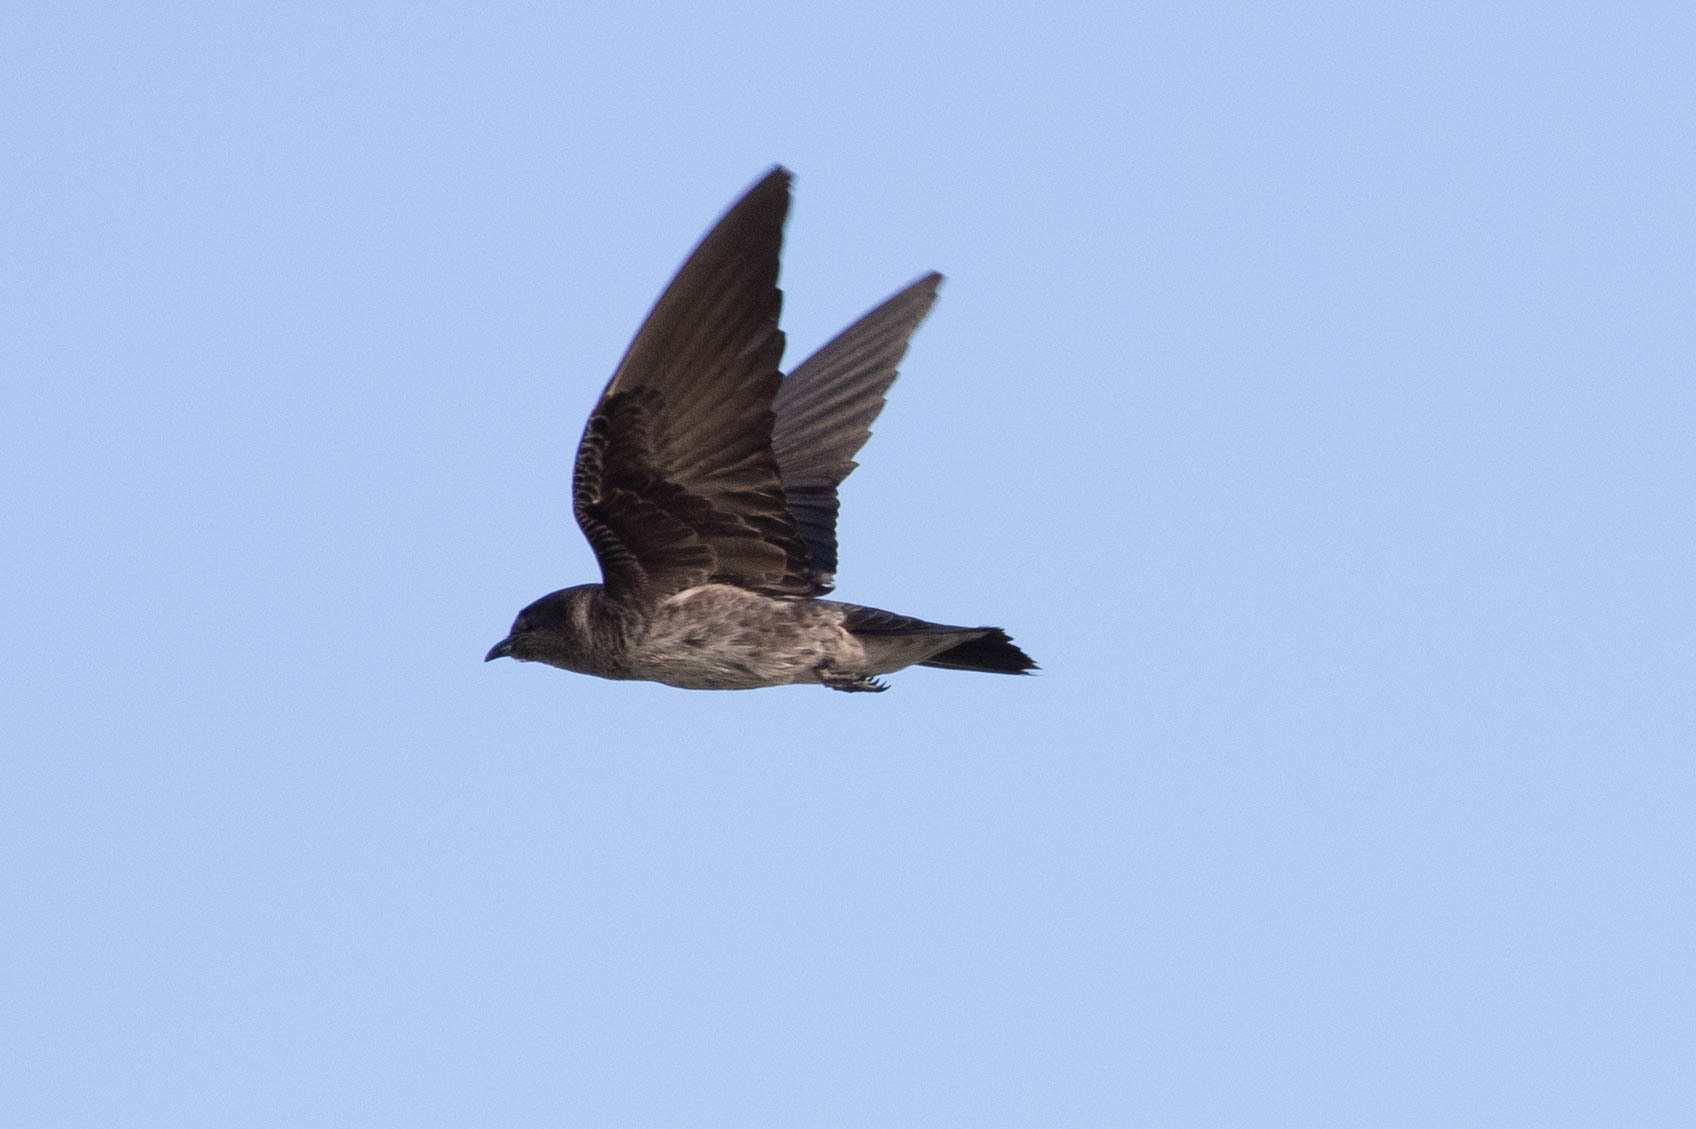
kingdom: Animalia
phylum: Chordata
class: Aves
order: Passeriformes
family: Hirundinidae
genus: Progne
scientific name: Progne subis
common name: Purple martin
